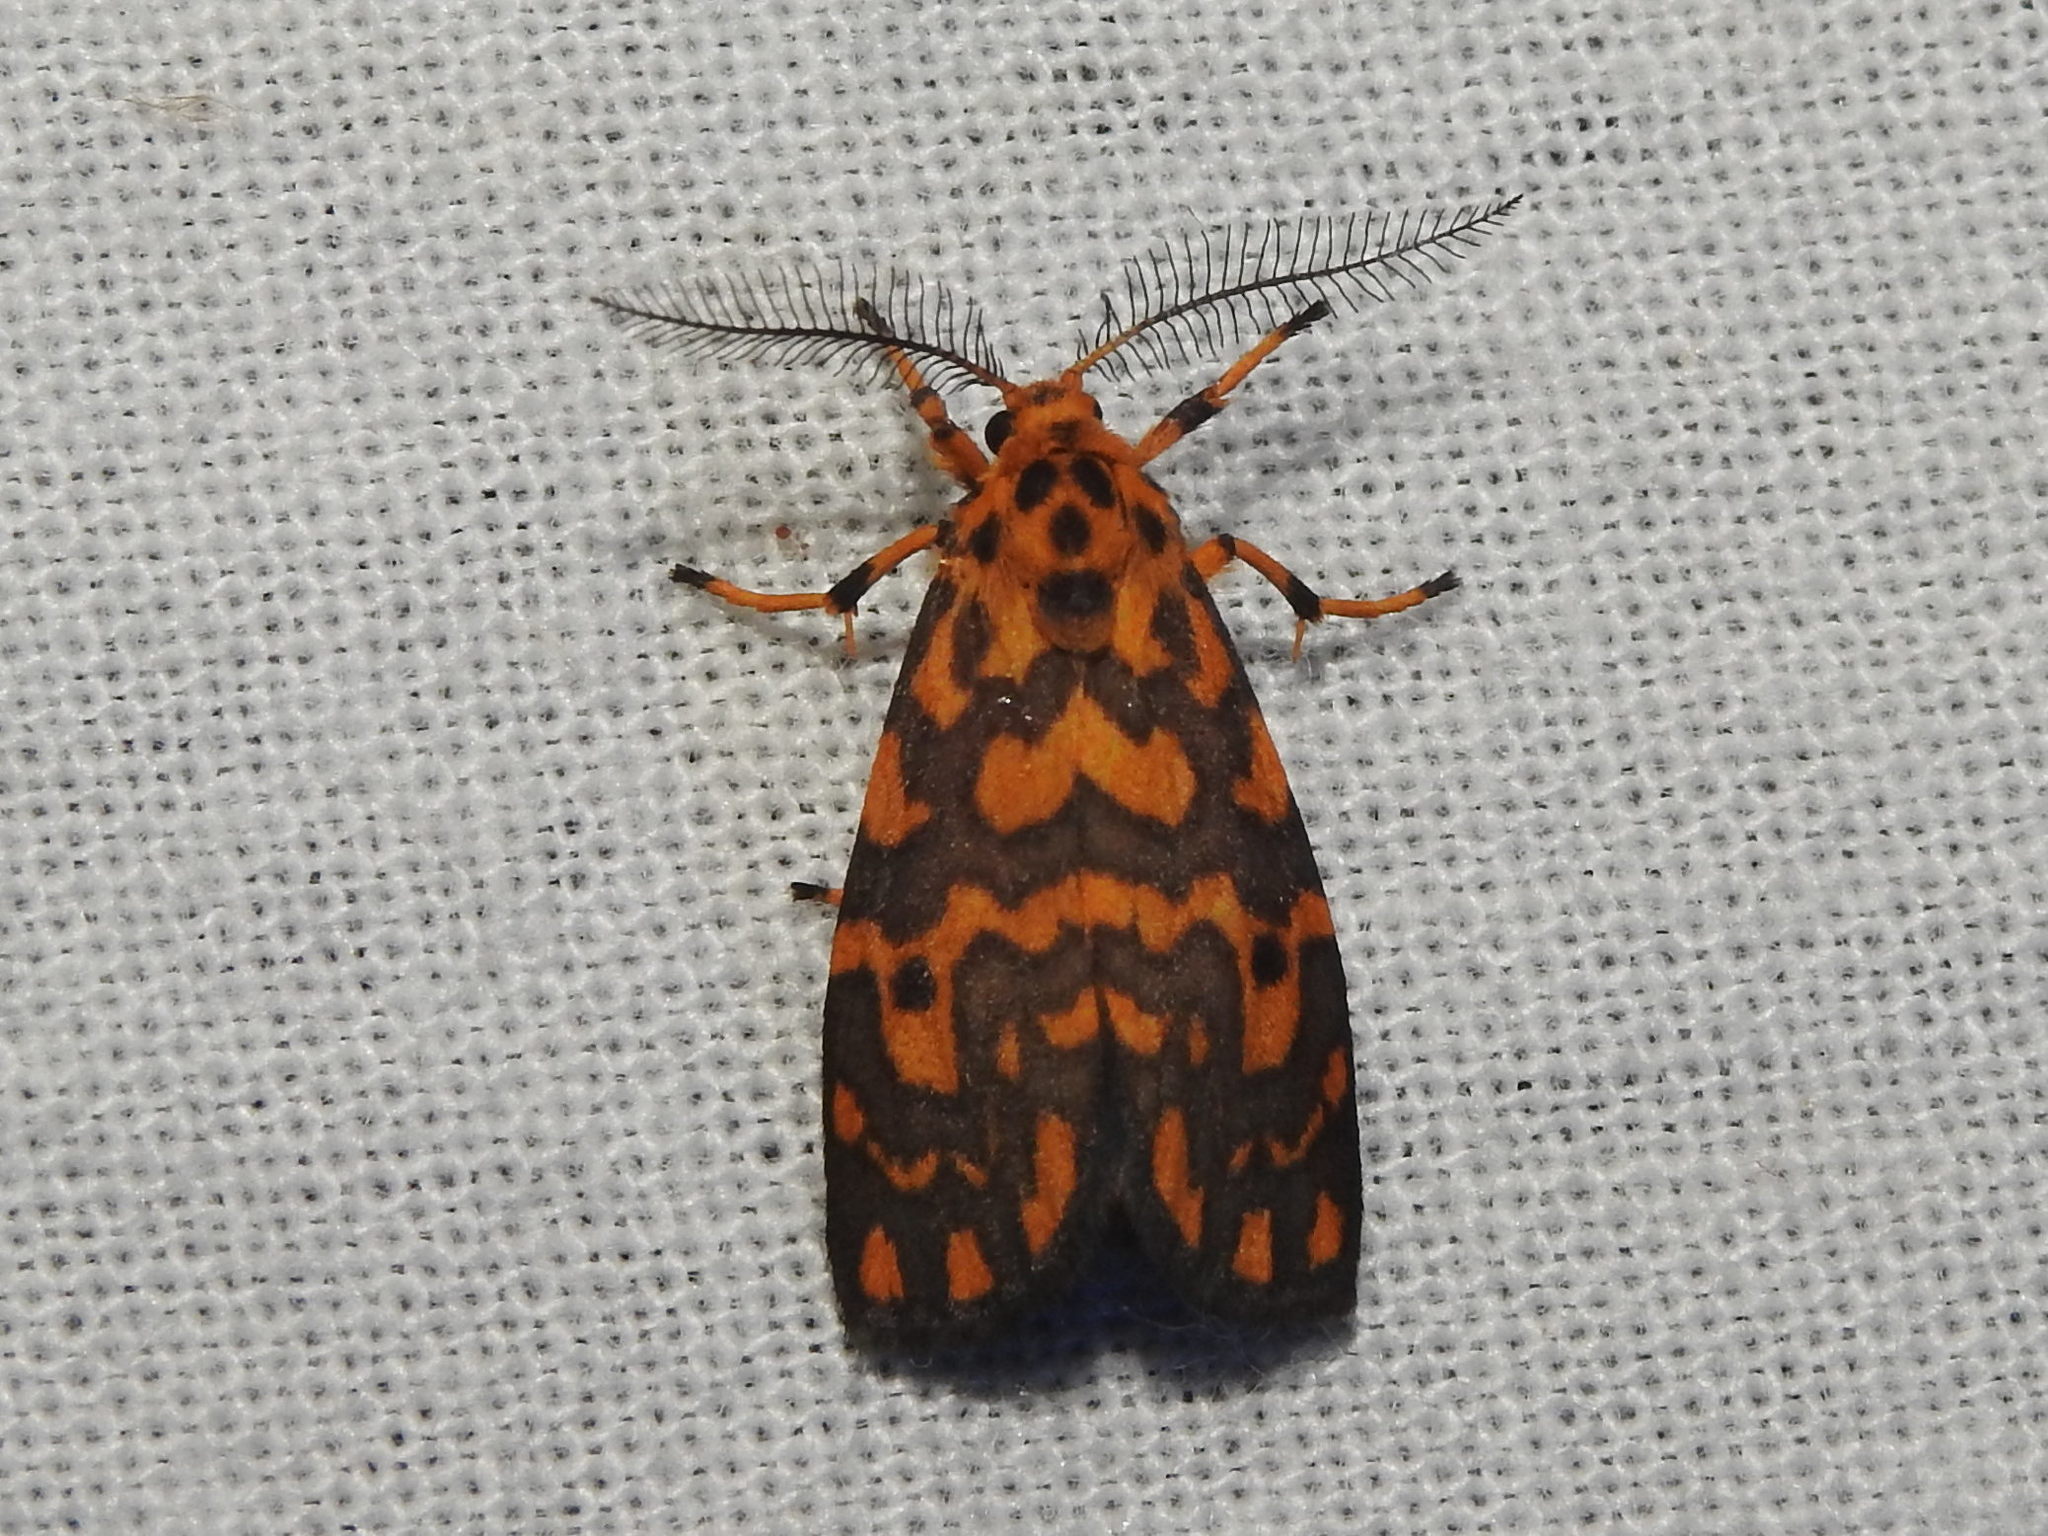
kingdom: Animalia
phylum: Arthropoda
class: Insecta
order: Lepidoptera
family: Erebidae
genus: Nepita
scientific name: Nepita conferta
